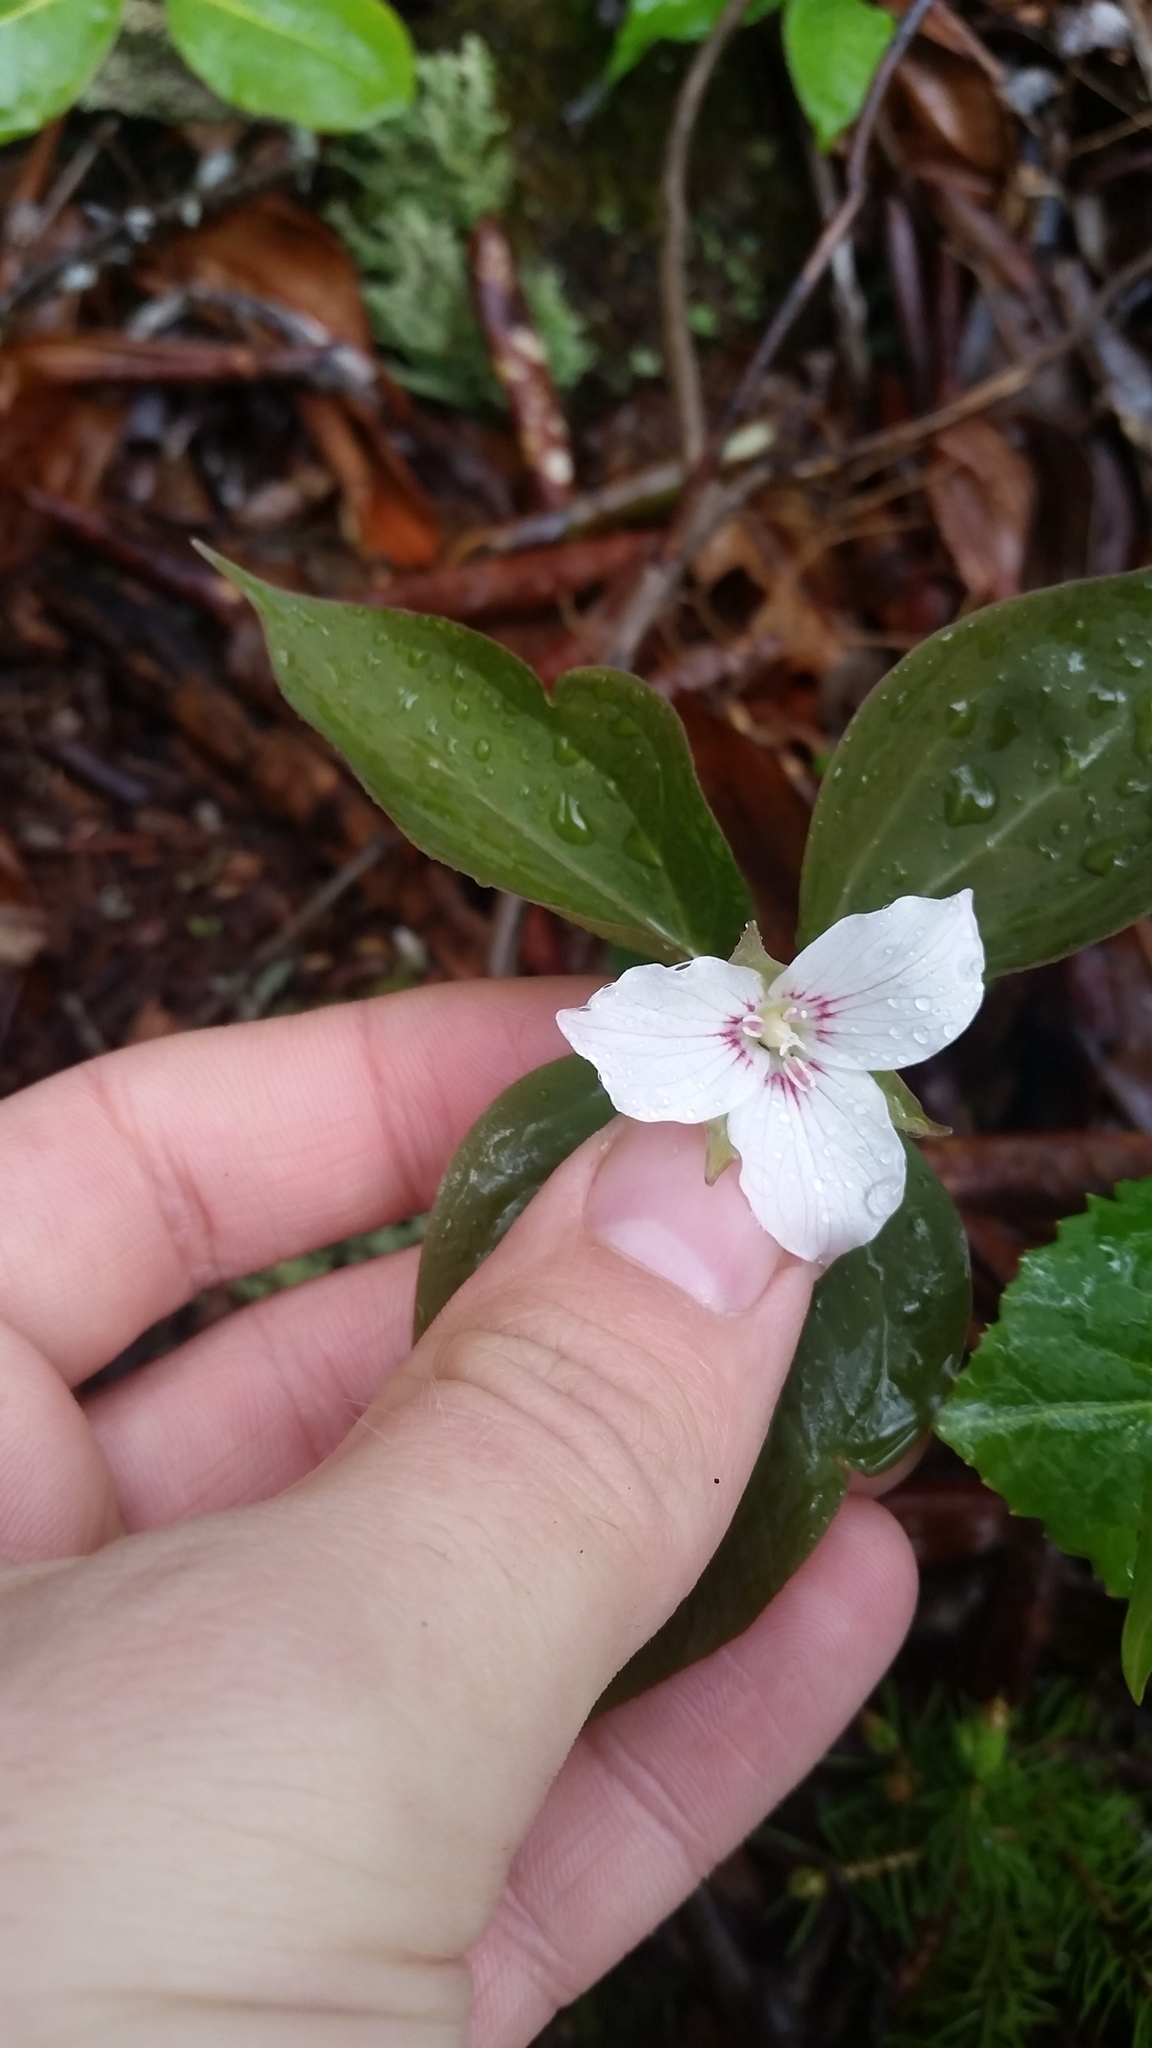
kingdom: Plantae
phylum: Tracheophyta
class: Liliopsida
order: Liliales
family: Melanthiaceae
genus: Trillium
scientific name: Trillium undulatum
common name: Paint trillium
